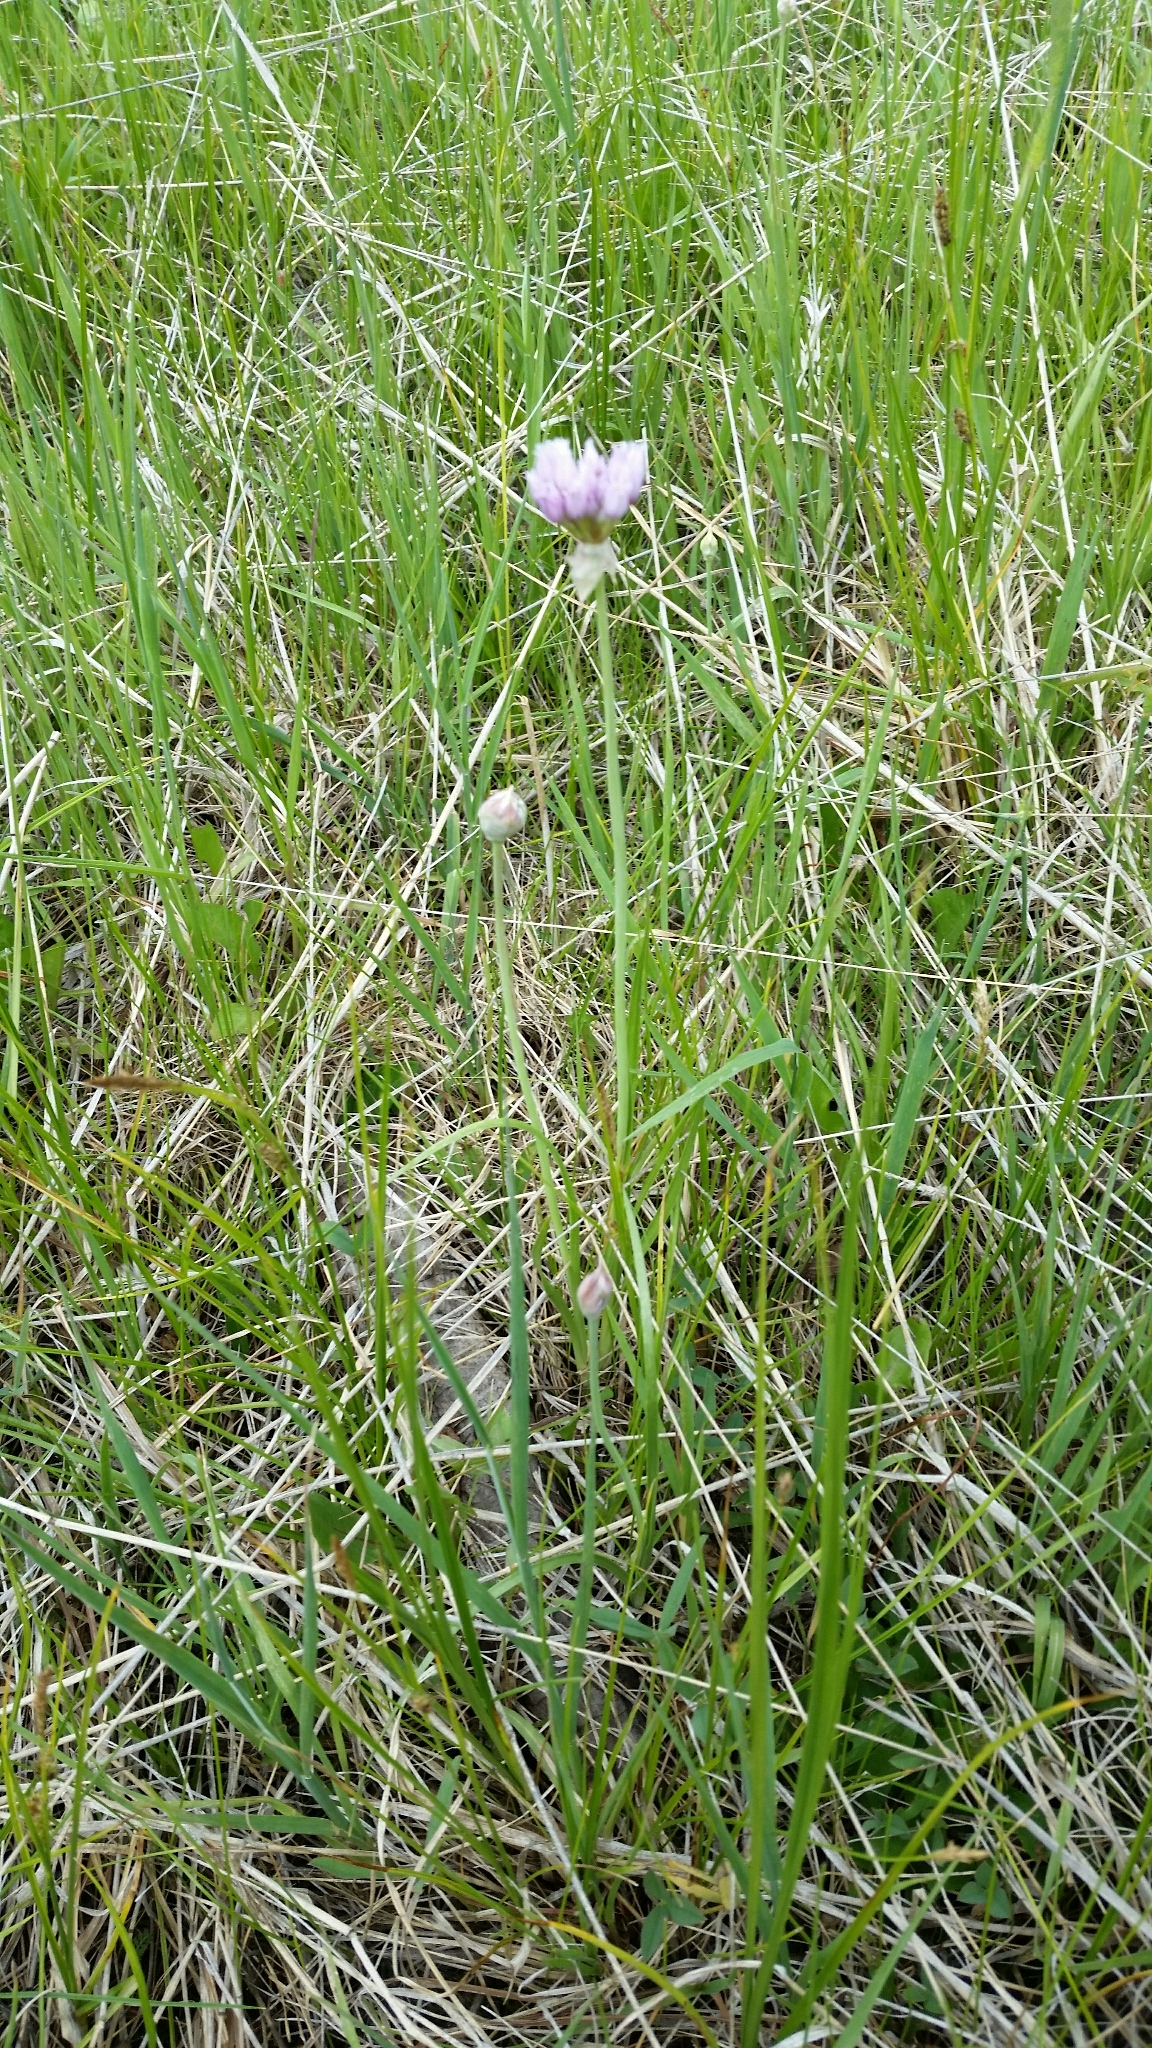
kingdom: Plantae
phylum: Tracheophyta
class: Liliopsida
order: Asparagales
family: Amaryllidaceae
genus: Allium
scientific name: Allium geyeri
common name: Geyer's onion
